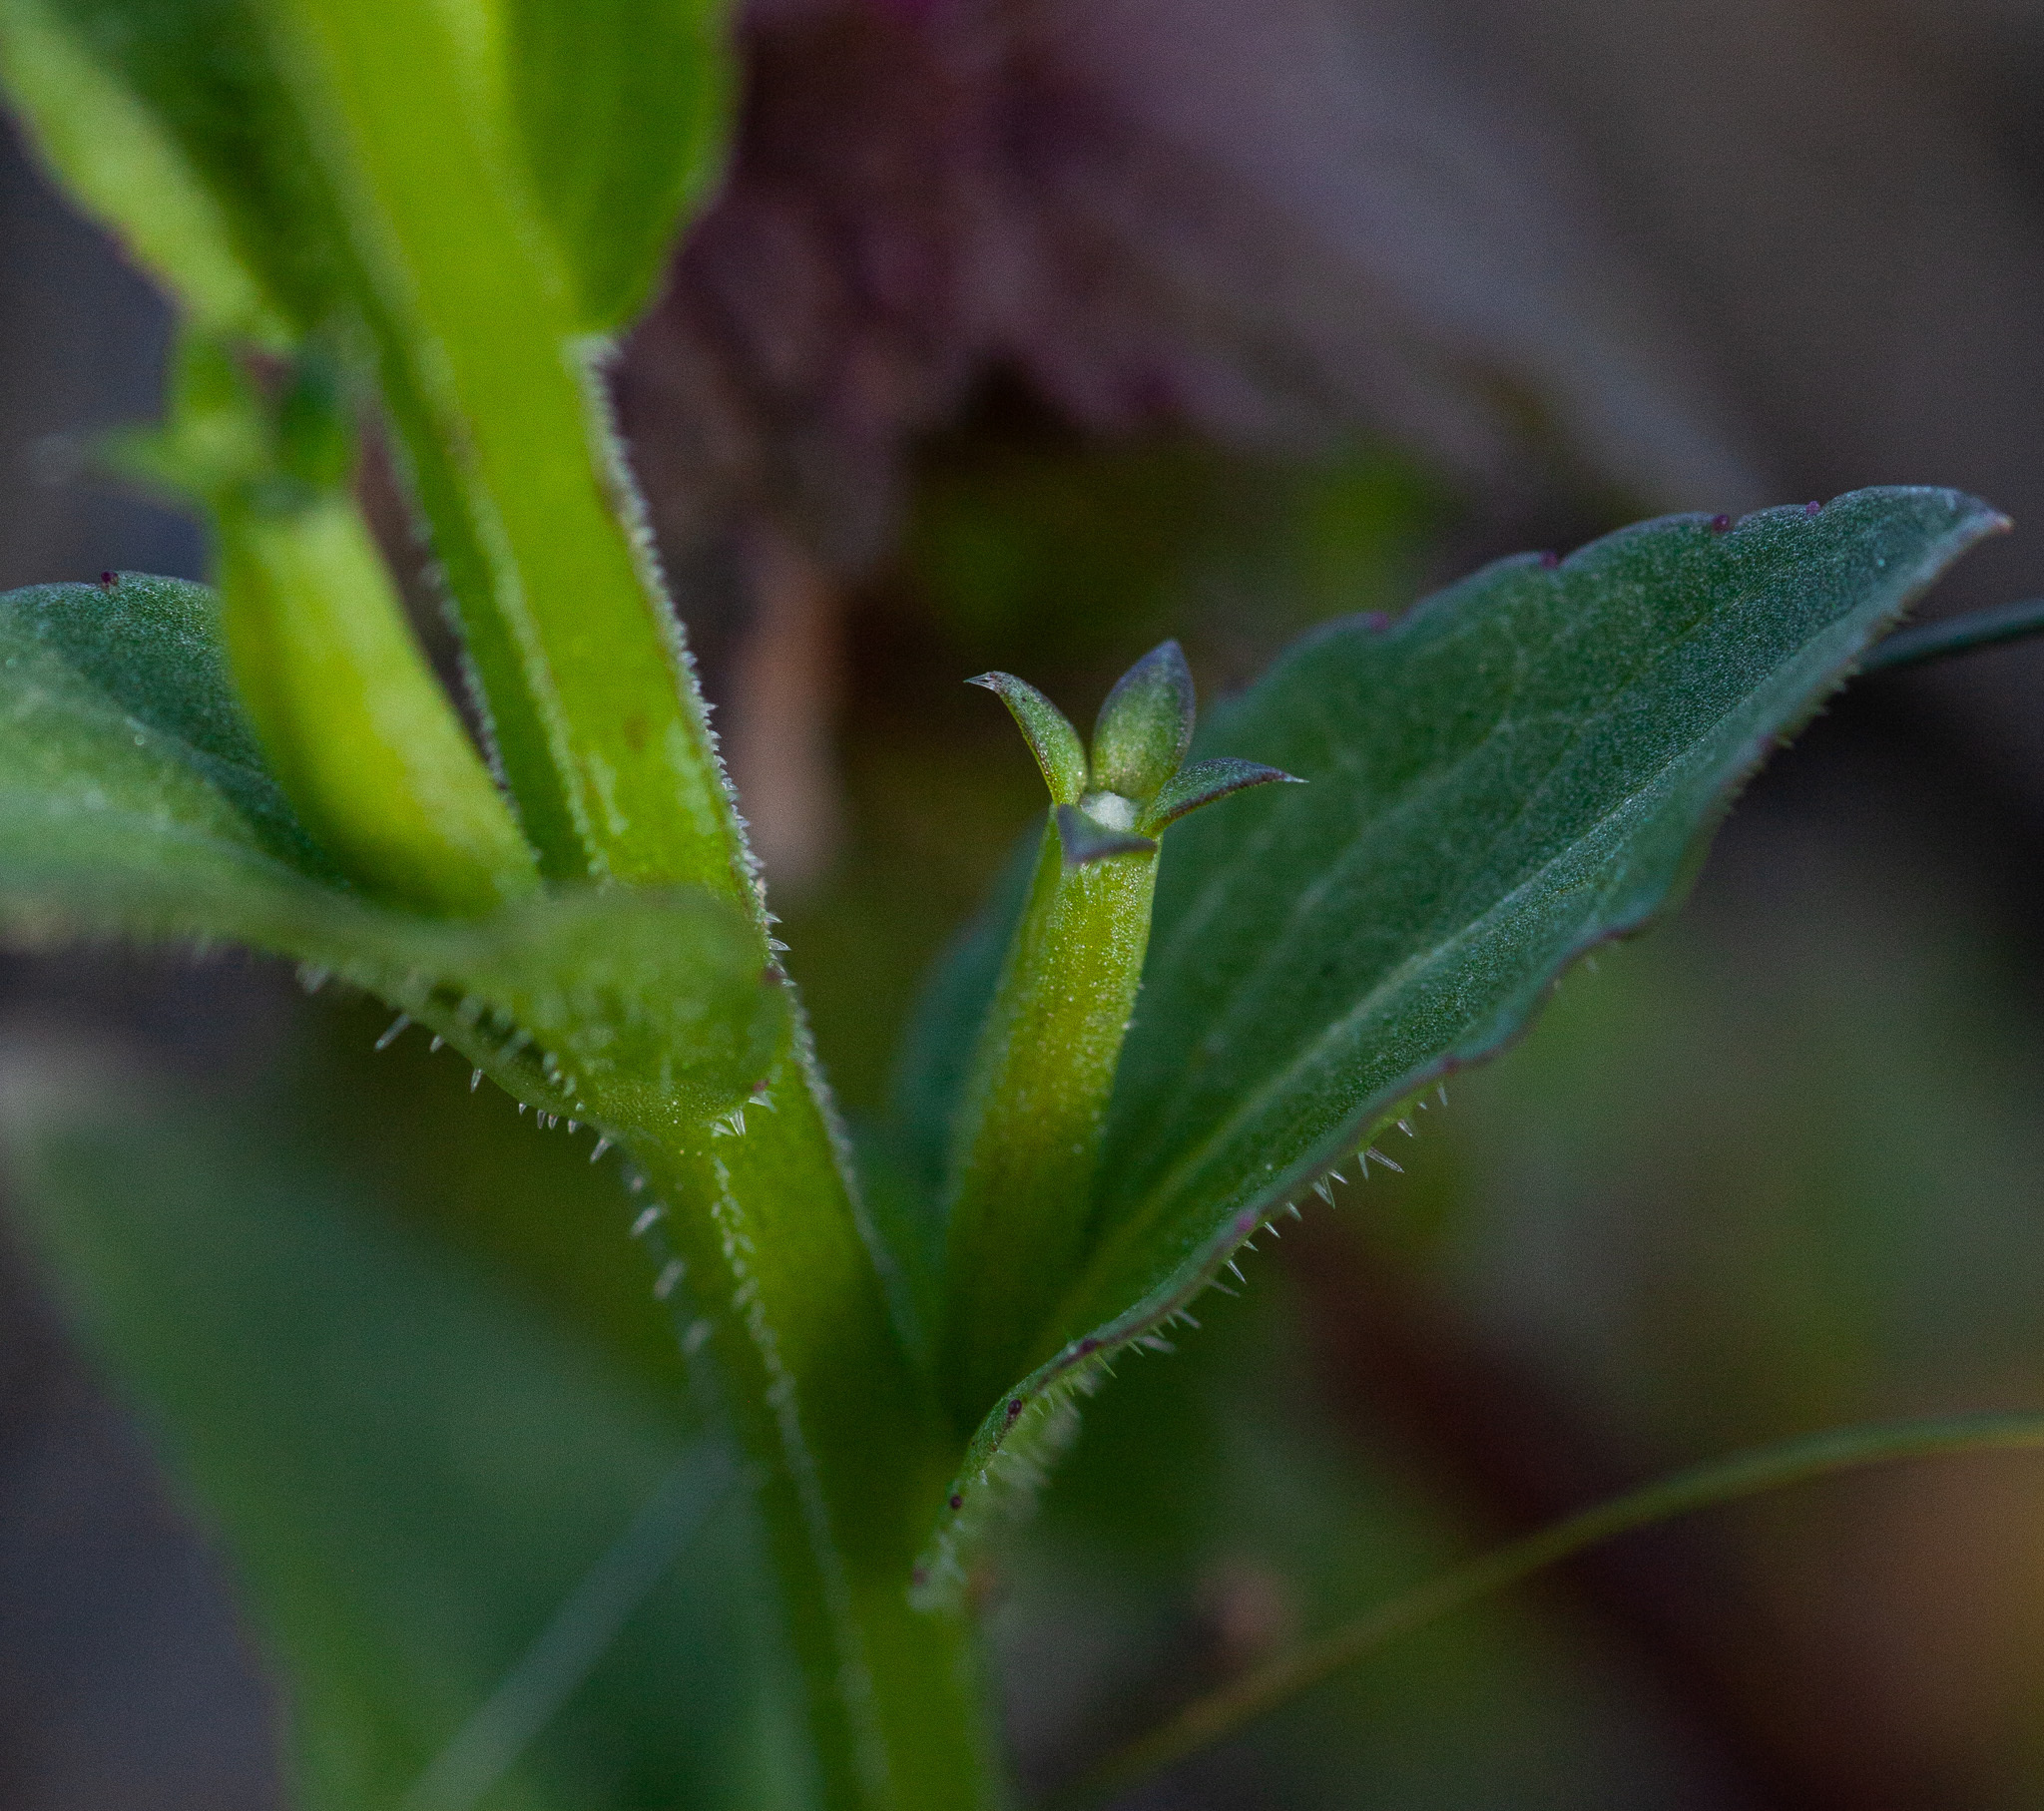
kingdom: Plantae
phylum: Tracheophyta
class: Magnoliopsida
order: Asterales
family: Campanulaceae
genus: Triodanis
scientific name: Triodanis biflora
